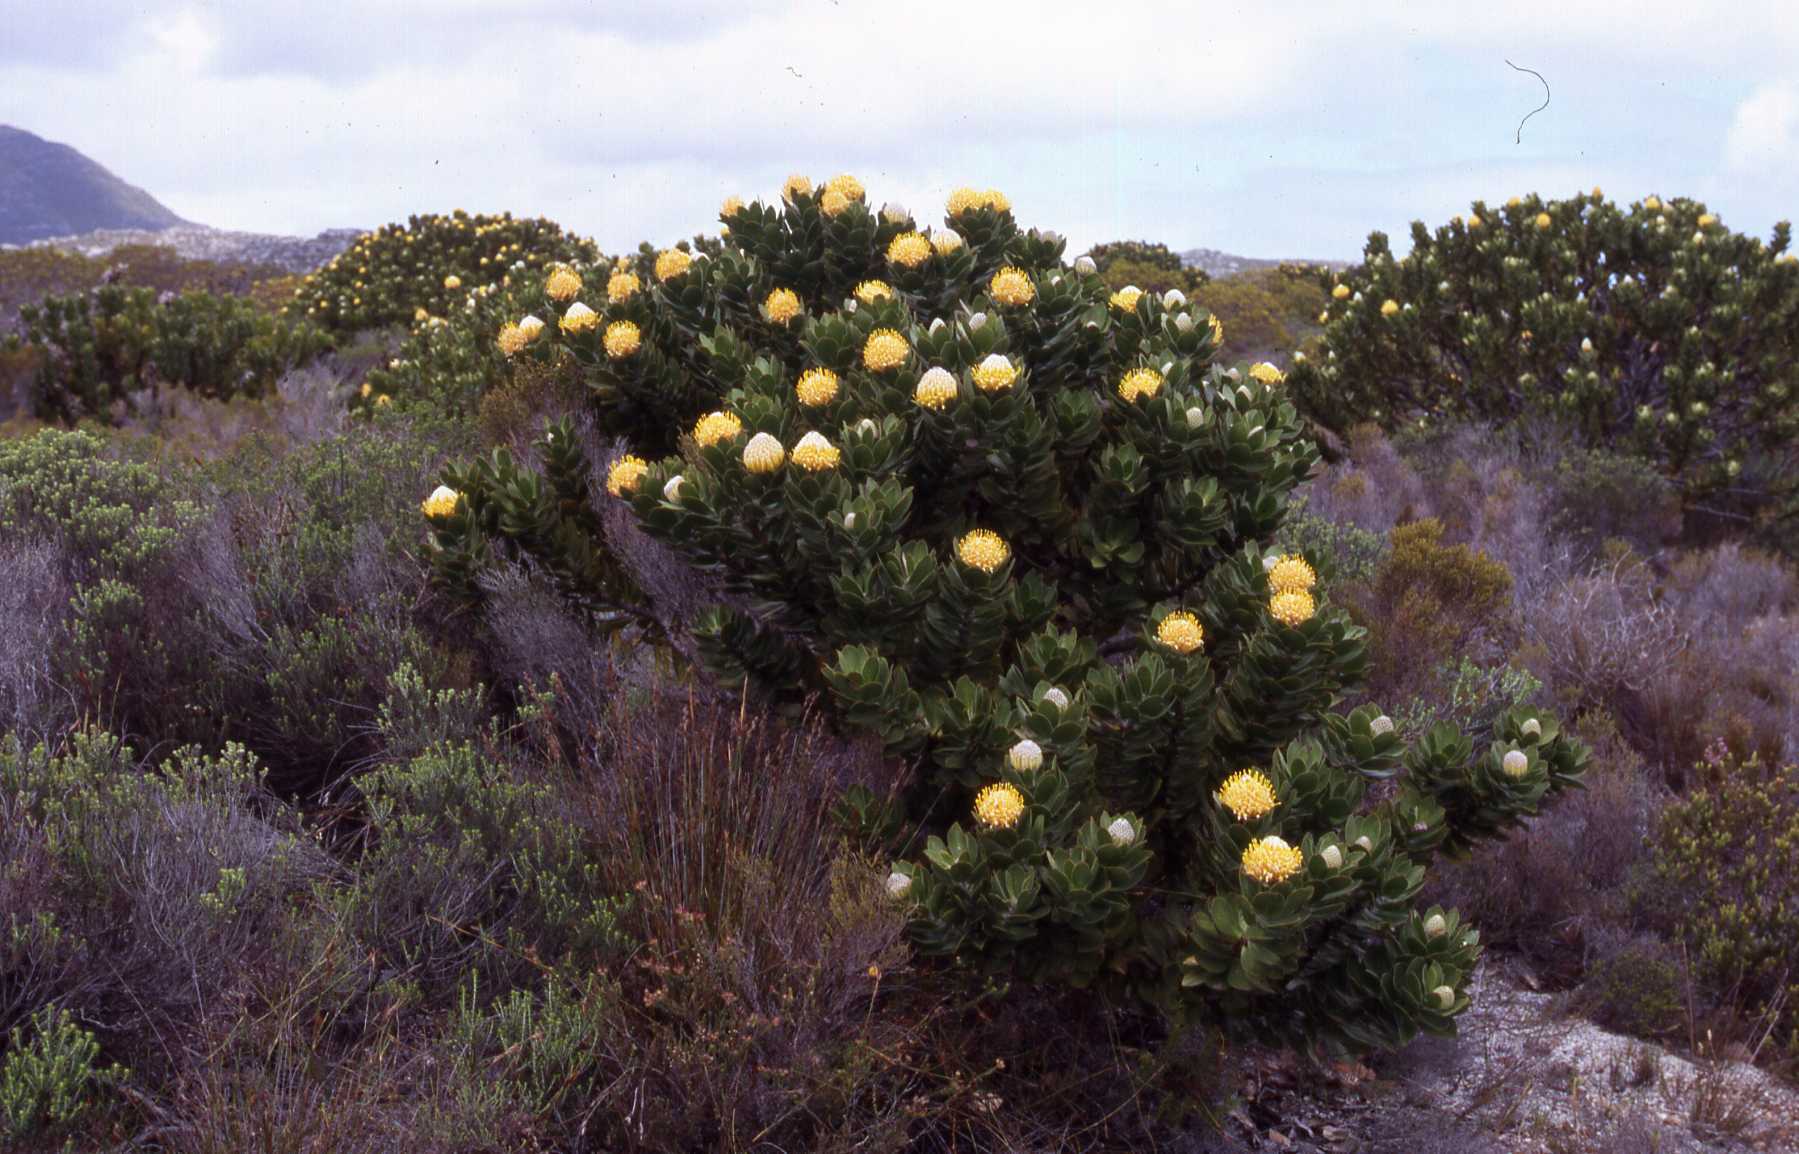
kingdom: Plantae
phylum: Tracheophyta
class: Magnoliopsida
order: Proteales
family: Proteaceae
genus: Leucospermum
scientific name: Leucospermum conocarpodendron
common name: Tree pincushion
